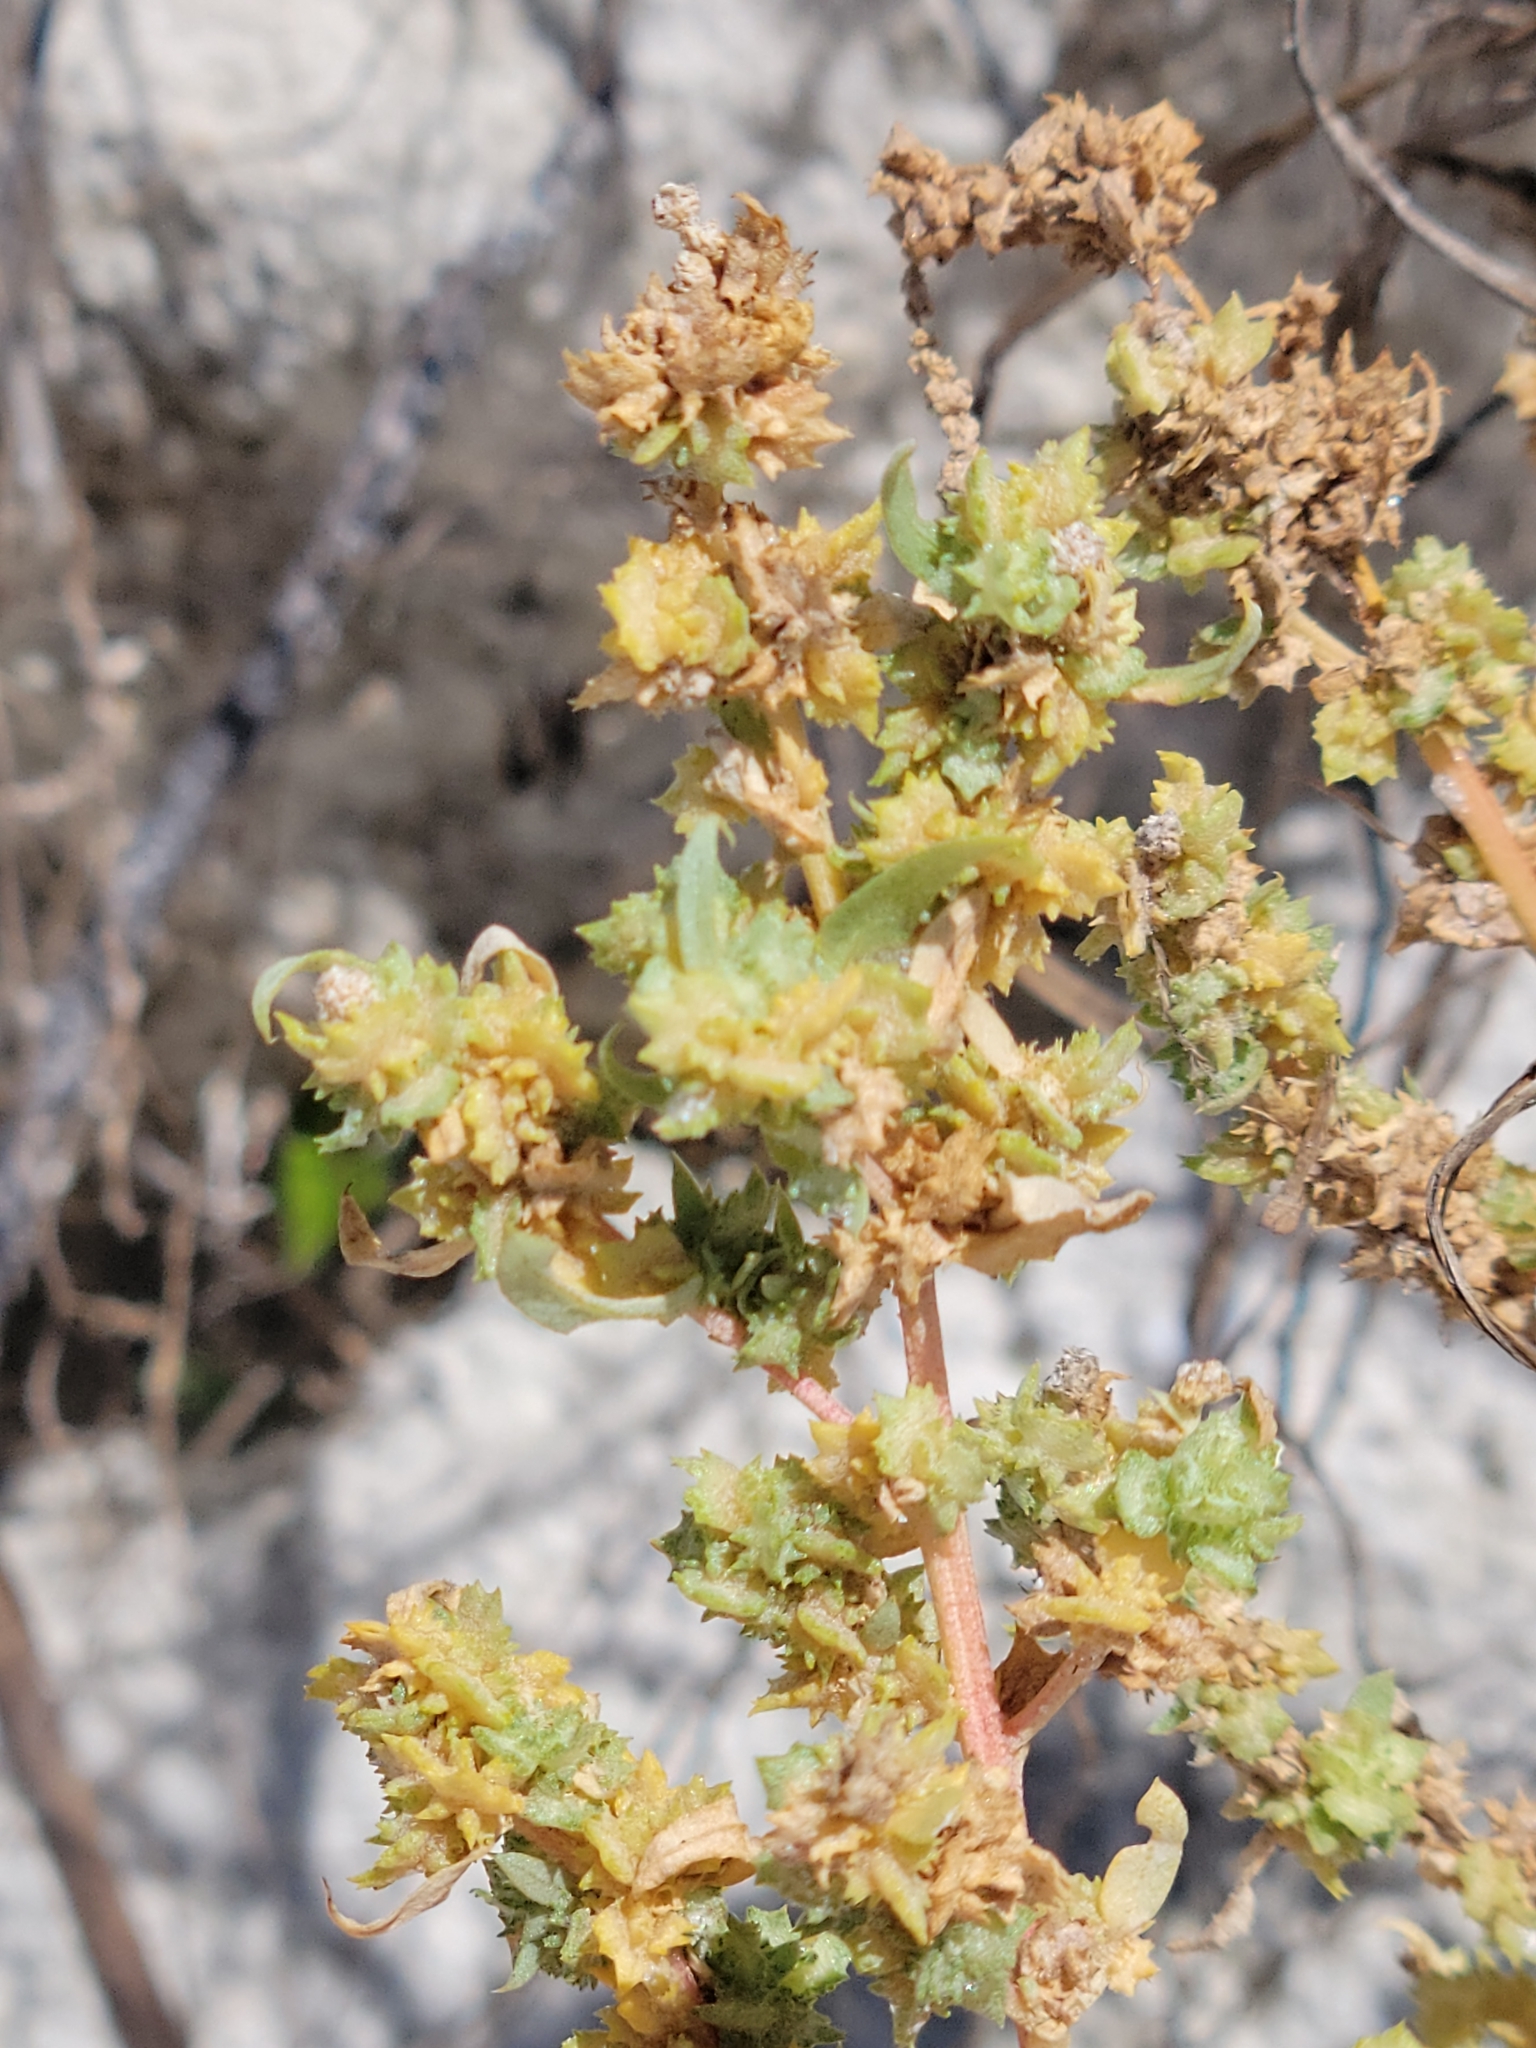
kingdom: Plantae
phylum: Tracheophyta
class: Magnoliopsida
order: Caryophyllales
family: Amaranthaceae
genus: Atriplex
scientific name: Atriplex cristata
